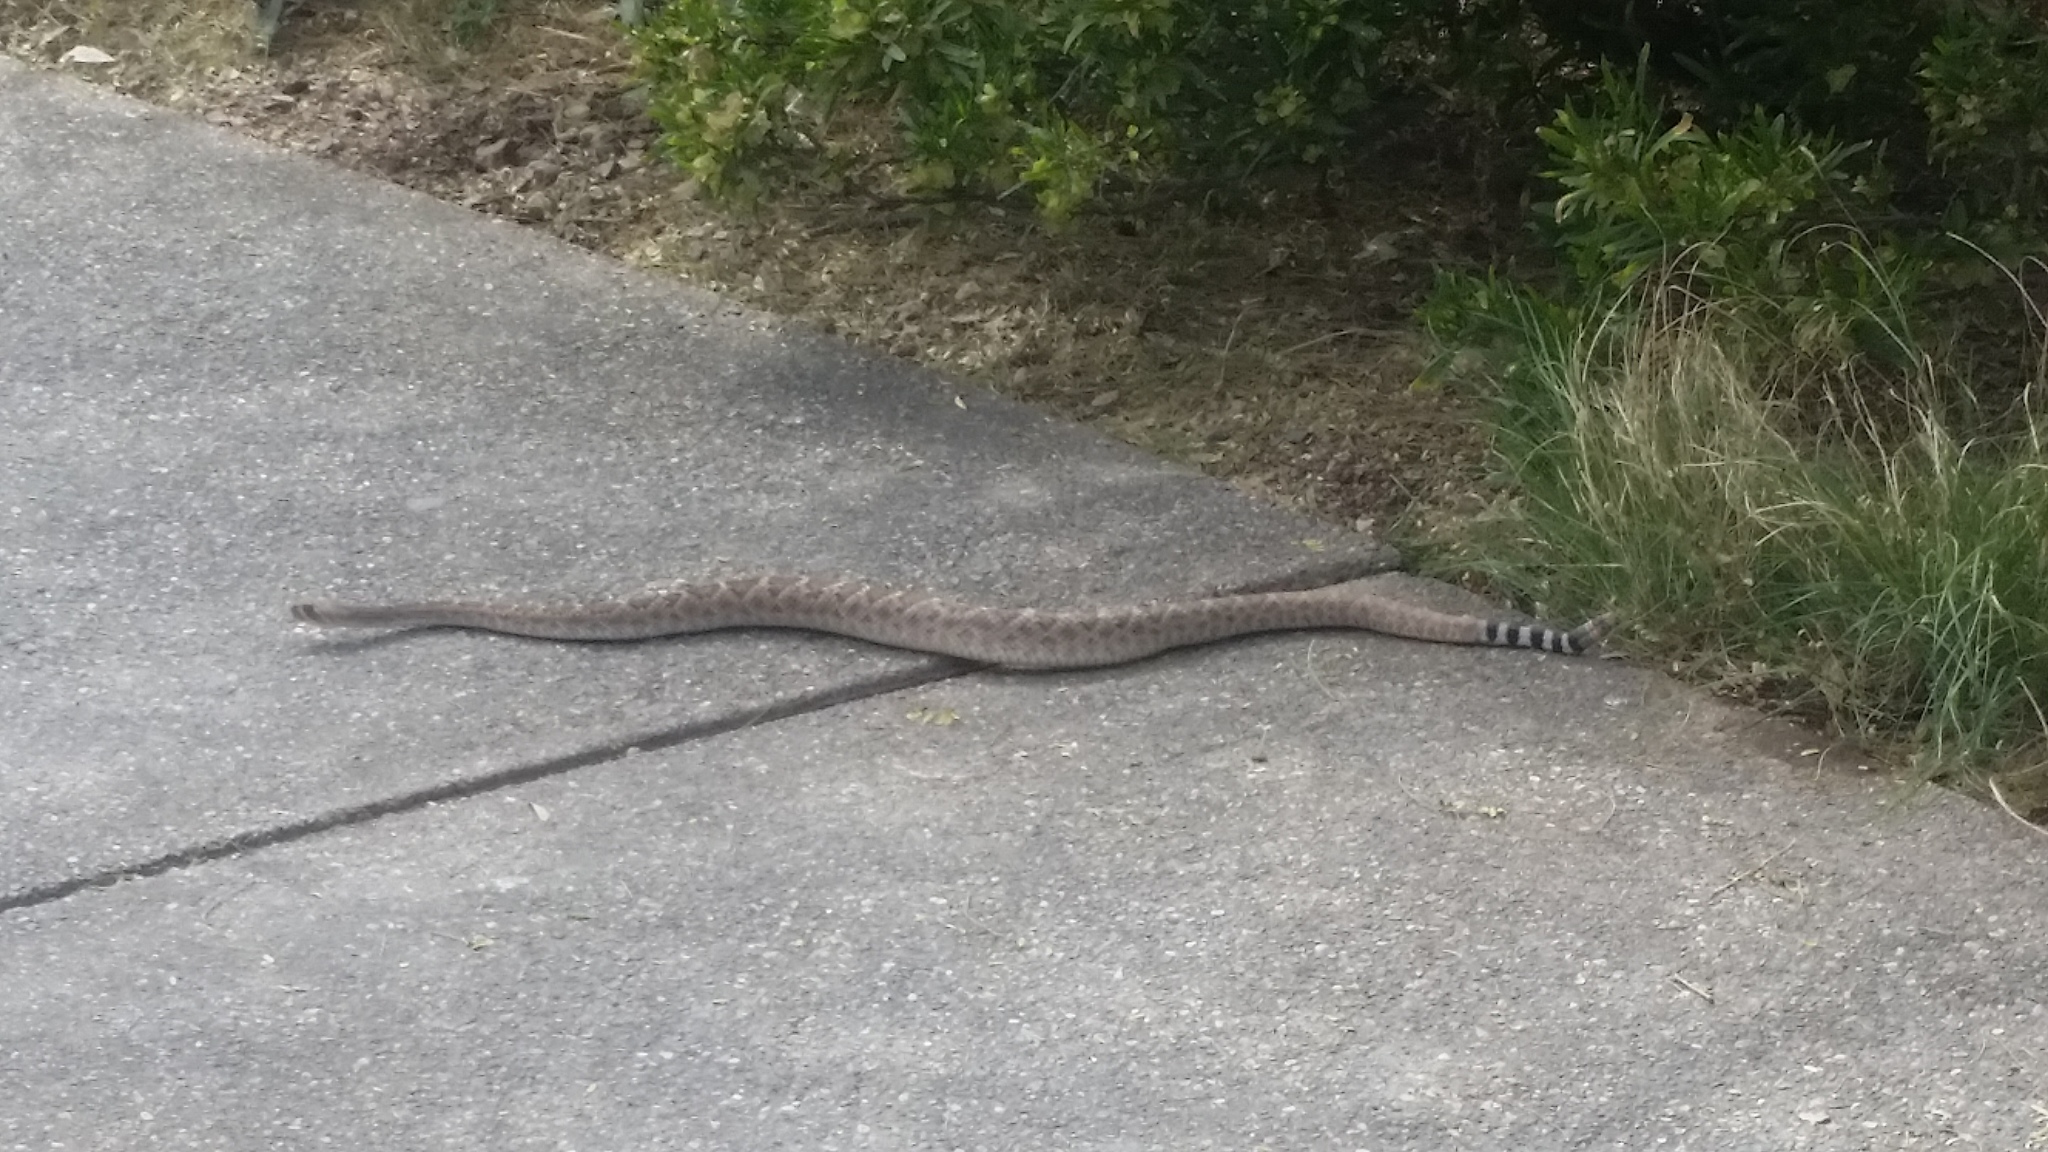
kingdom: Animalia
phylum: Chordata
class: Squamata
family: Viperidae
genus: Crotalus
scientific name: Crotalus atrox
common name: Western diamond-backed rattlesnake
